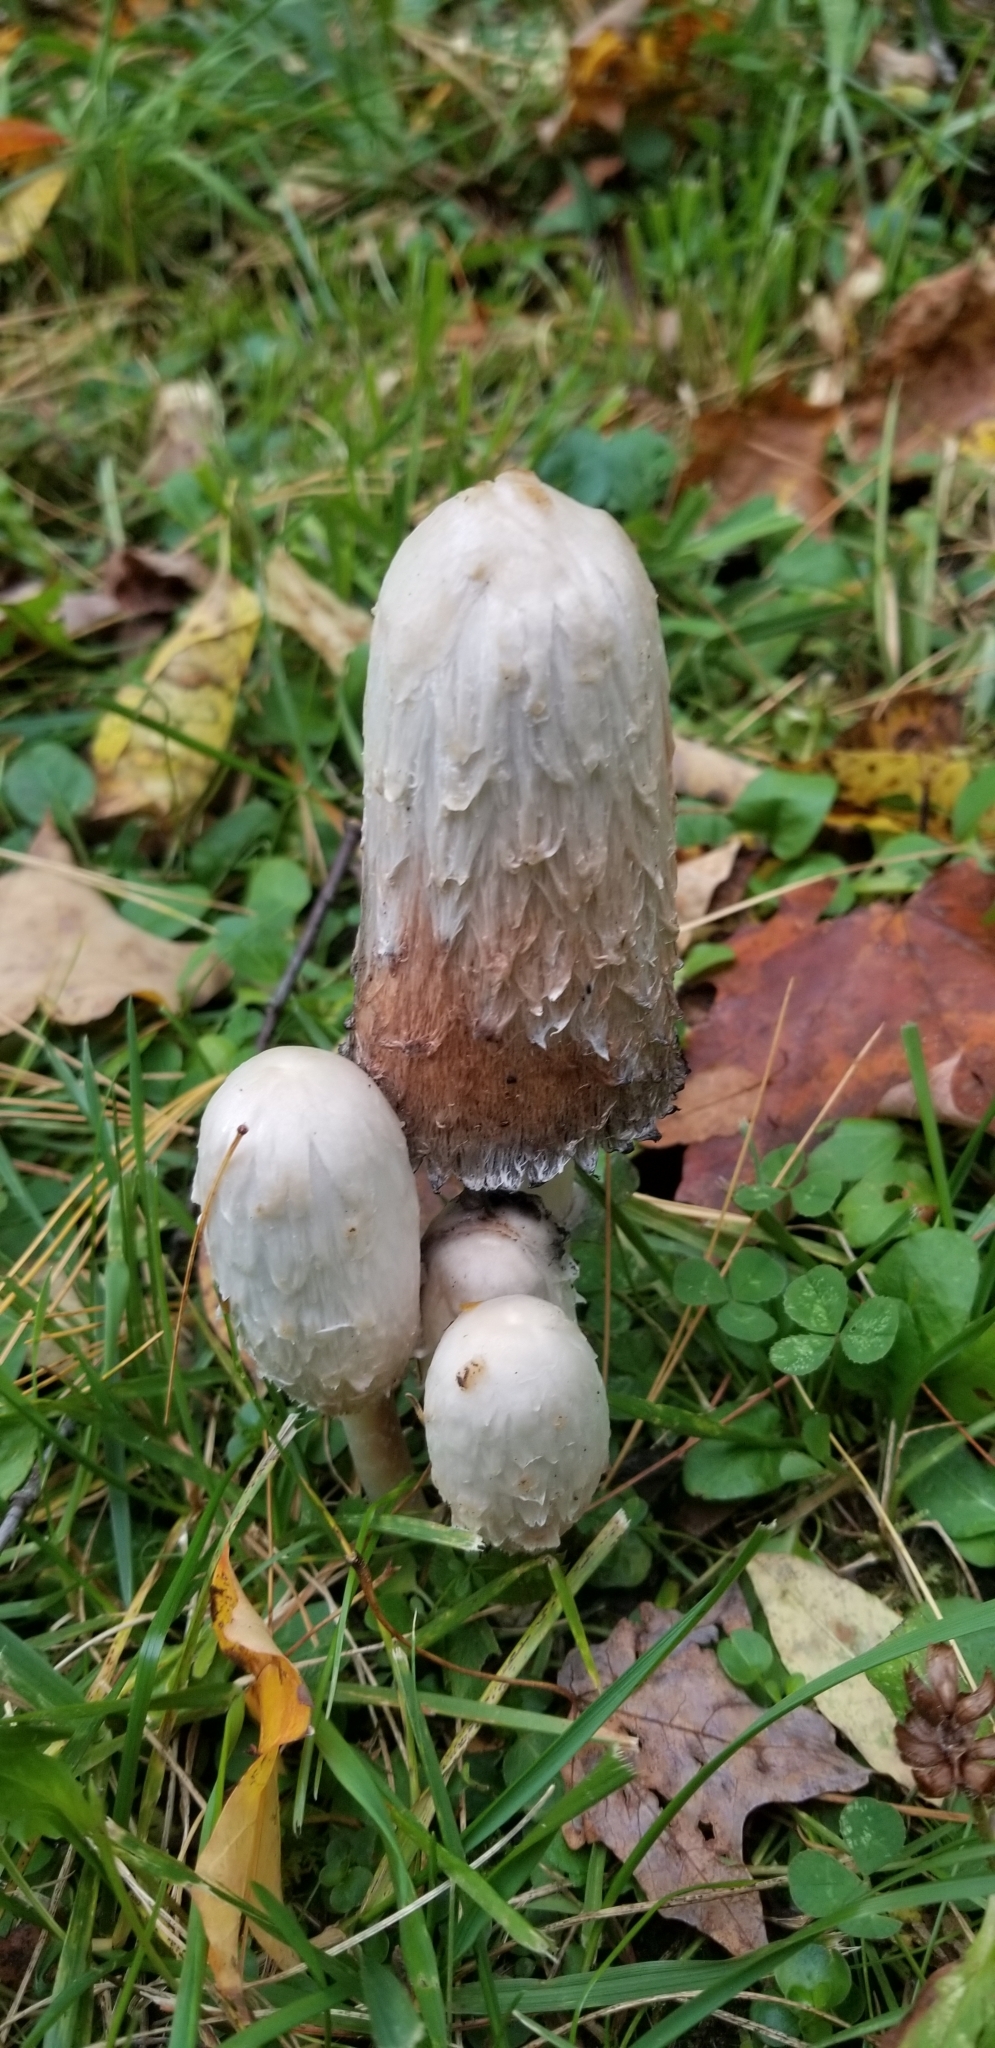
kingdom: Fungi
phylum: Basidiomycota
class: Agaricomycetes
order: Agaricales
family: Agaricaceae
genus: Coprinus
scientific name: Coprinus comatus
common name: Lawyer's wig
